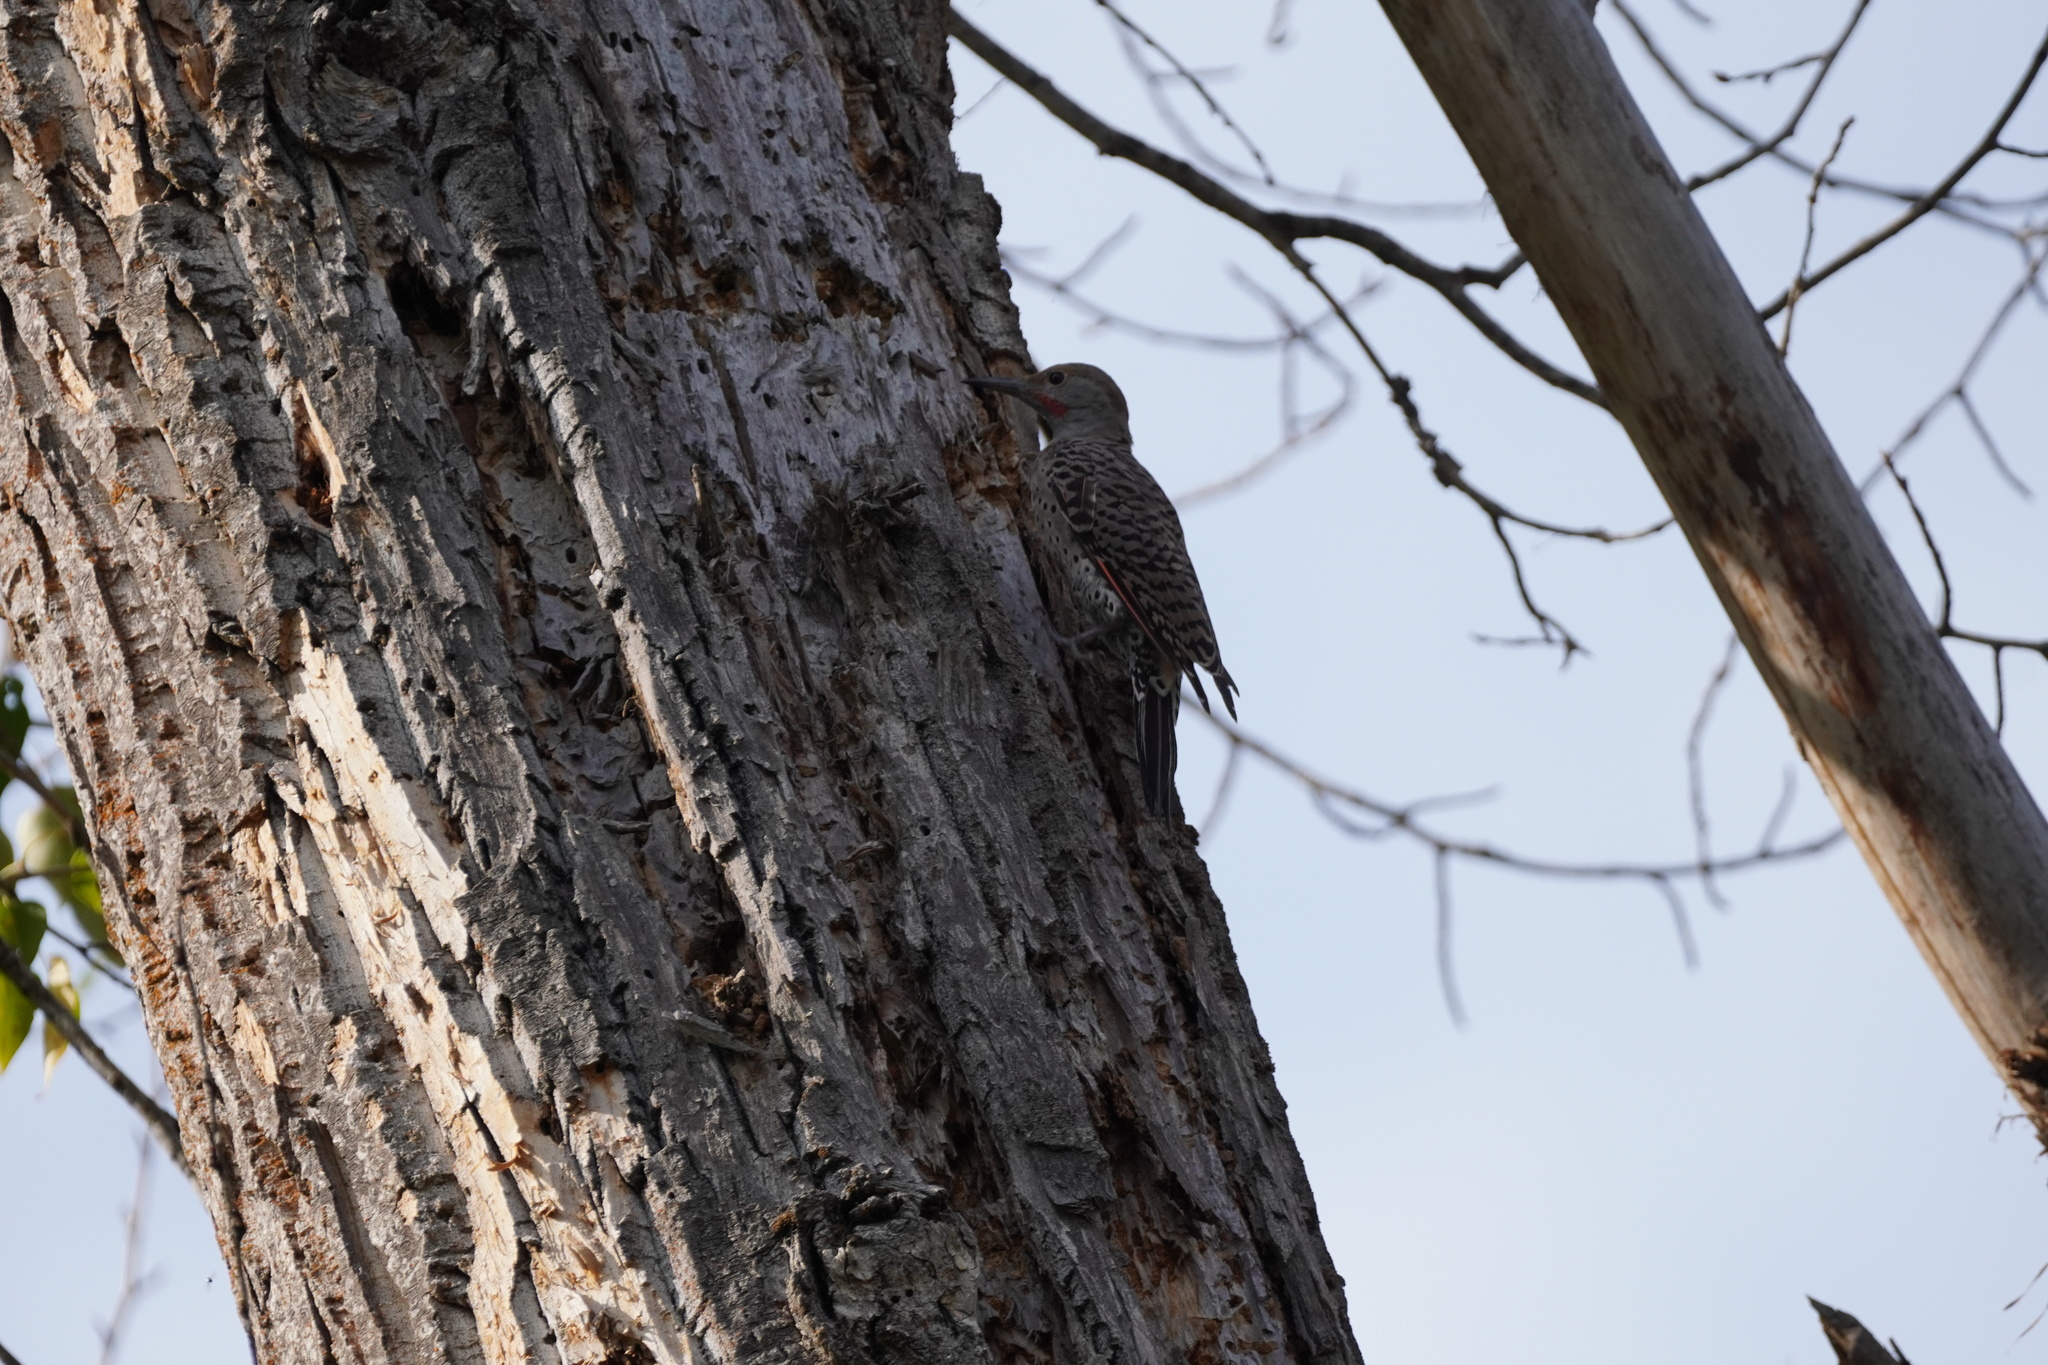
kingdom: Animalia
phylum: Chordata
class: Aves
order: Piciformes
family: Picidae
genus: Colaptes
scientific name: Colaptes auratus
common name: Northern flicker
